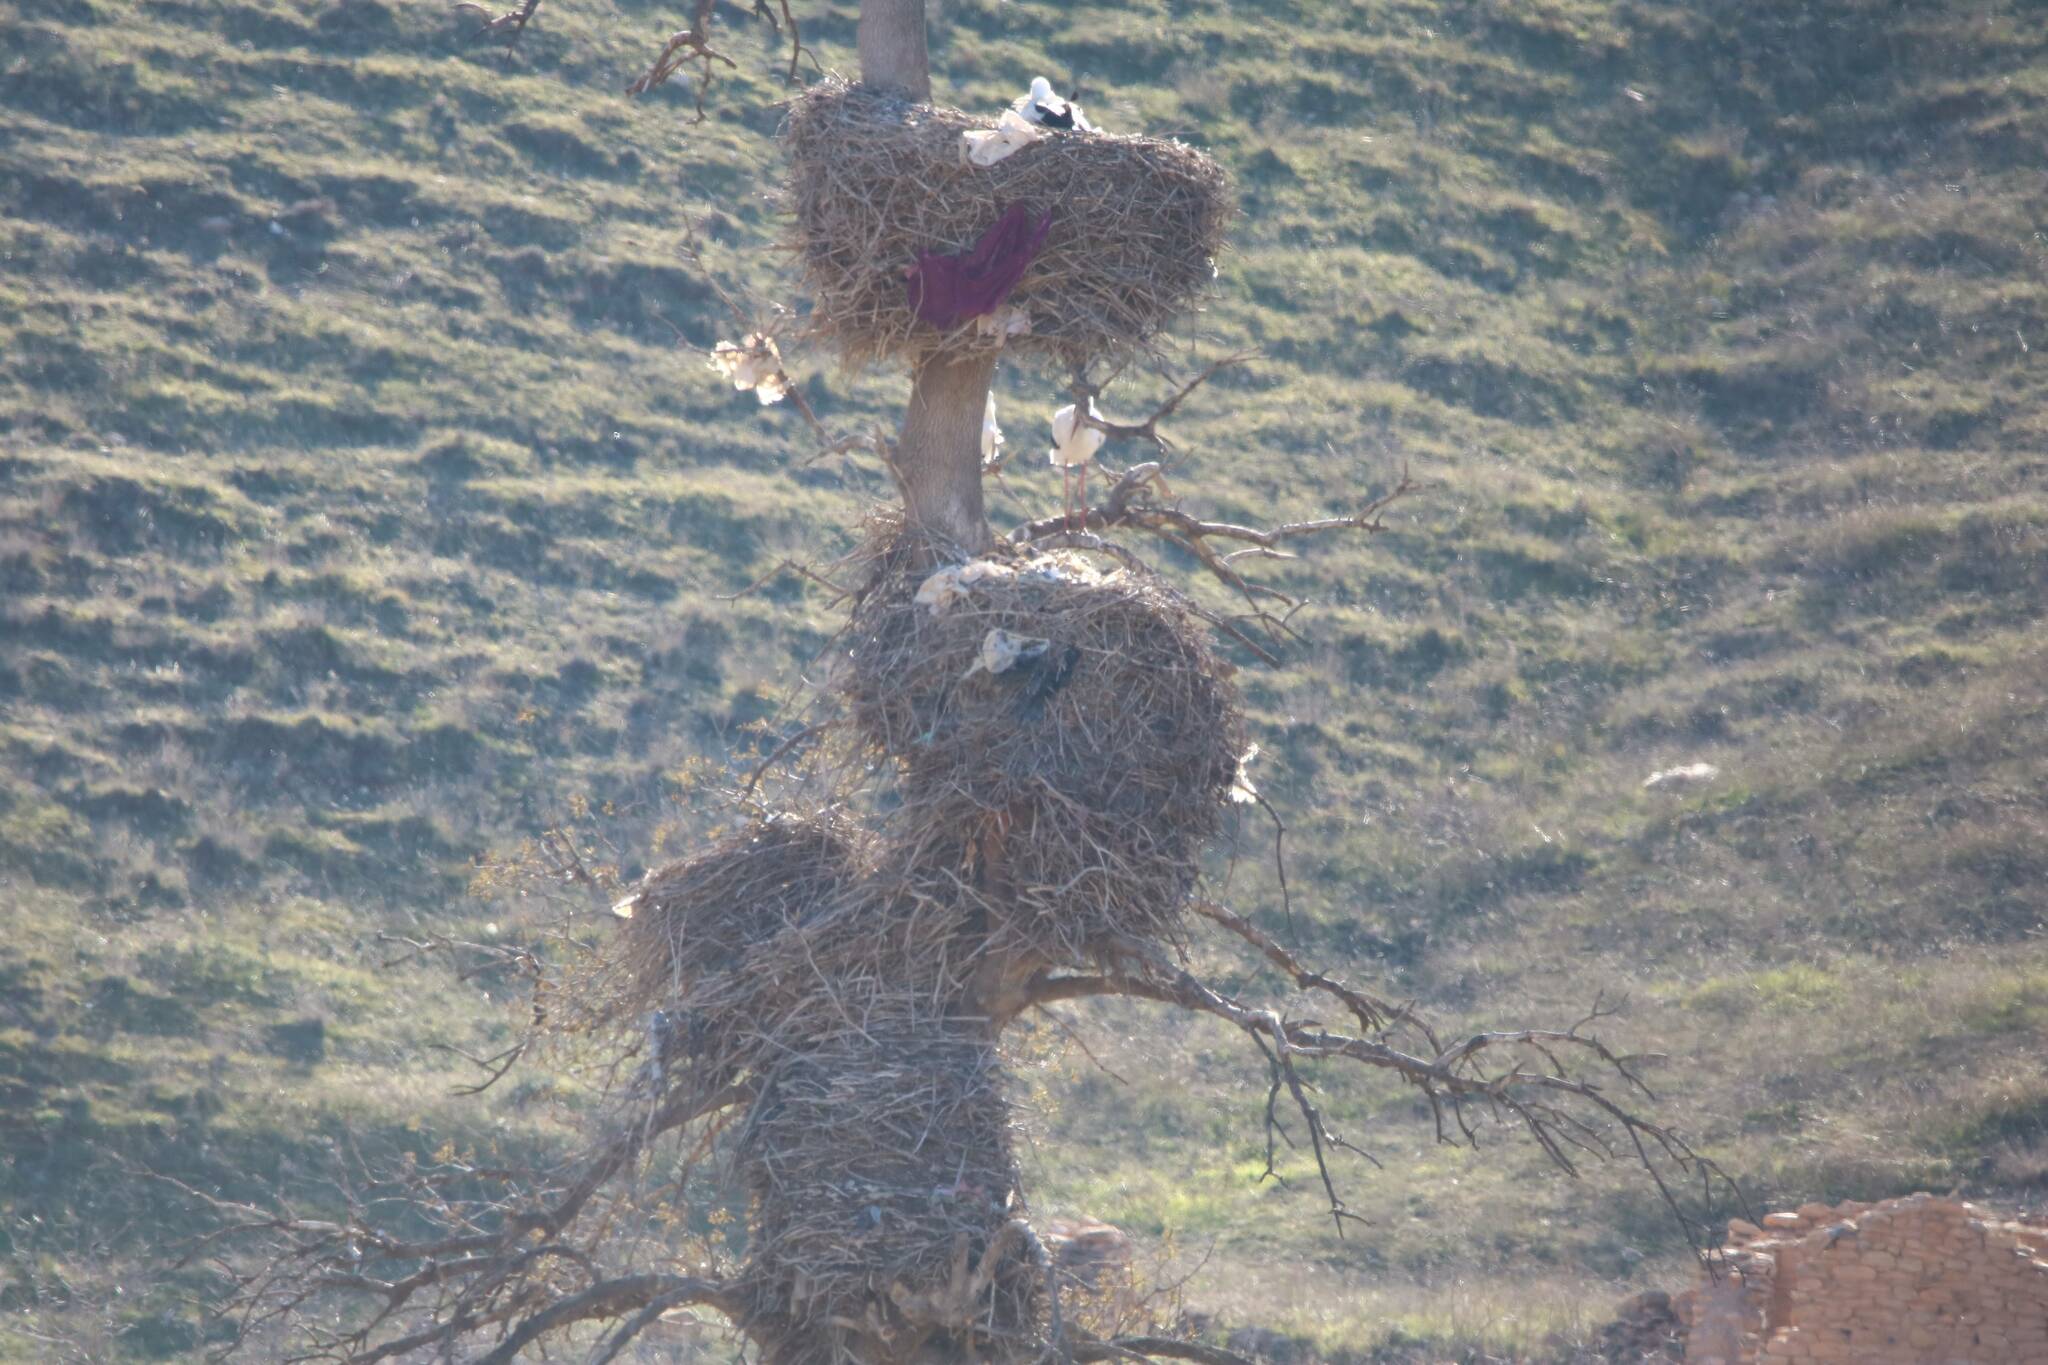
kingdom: Animalia
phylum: Chordata
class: Aves
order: Ciconiiformes
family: Ciconiidae
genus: Ciconia
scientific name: Ciconia ciconia
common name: White stork
